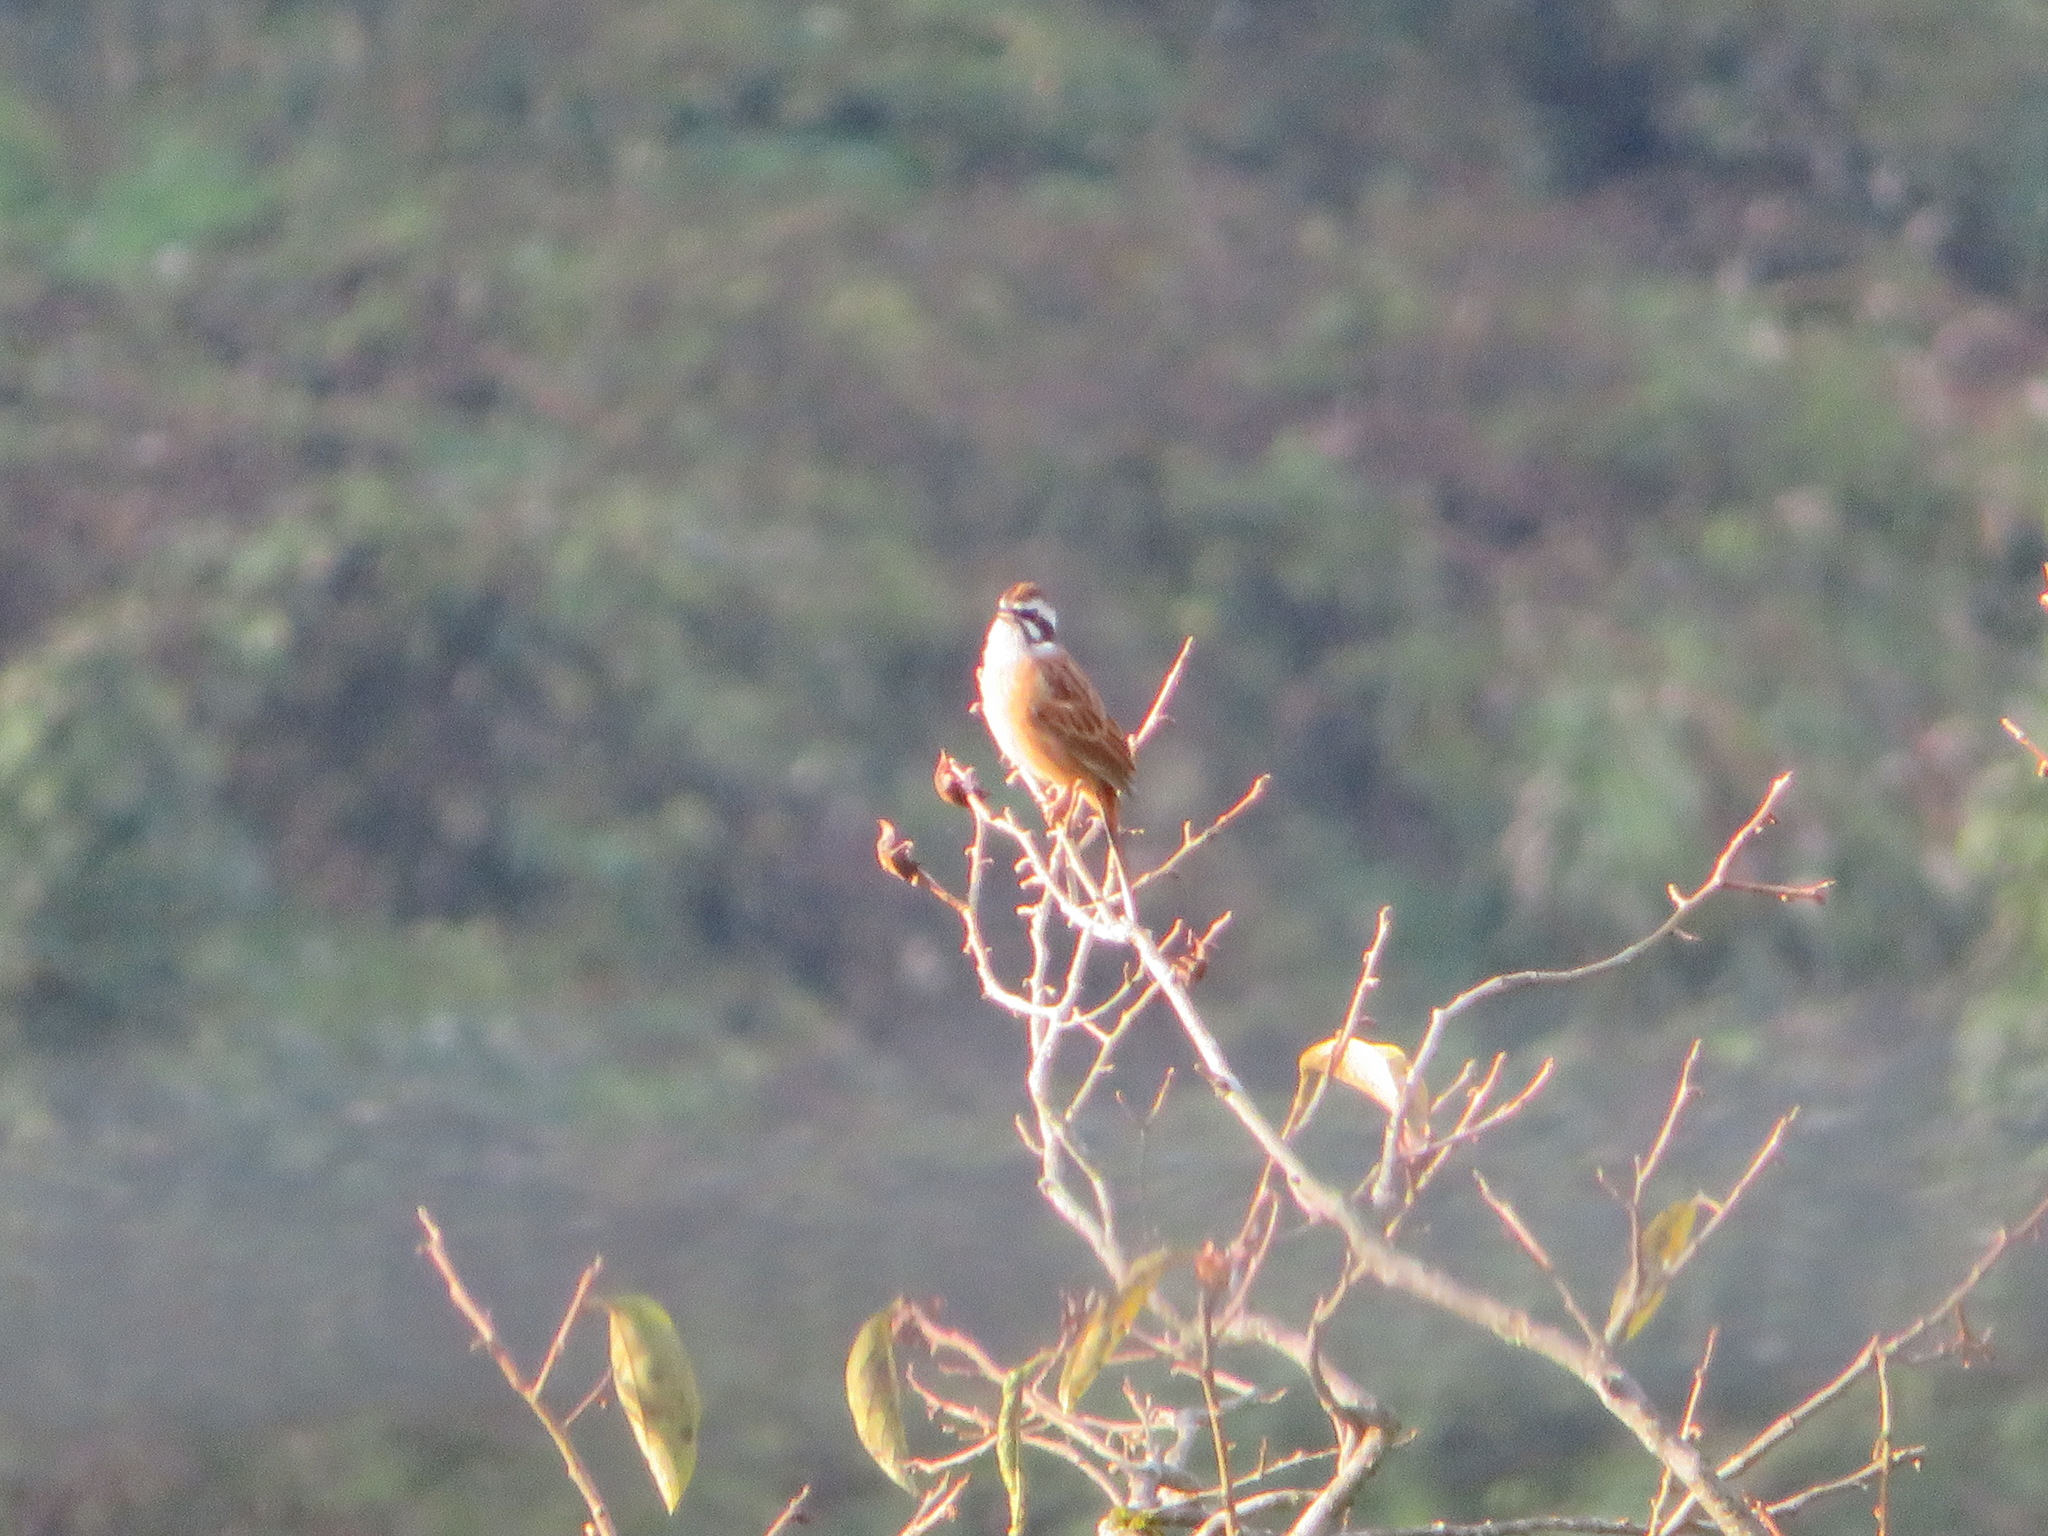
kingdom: Animalia
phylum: Chordata
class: Aves
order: Passeriformes
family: Emberizidae
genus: Emberiza
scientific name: Emberiza cioides
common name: Meadow bunting
